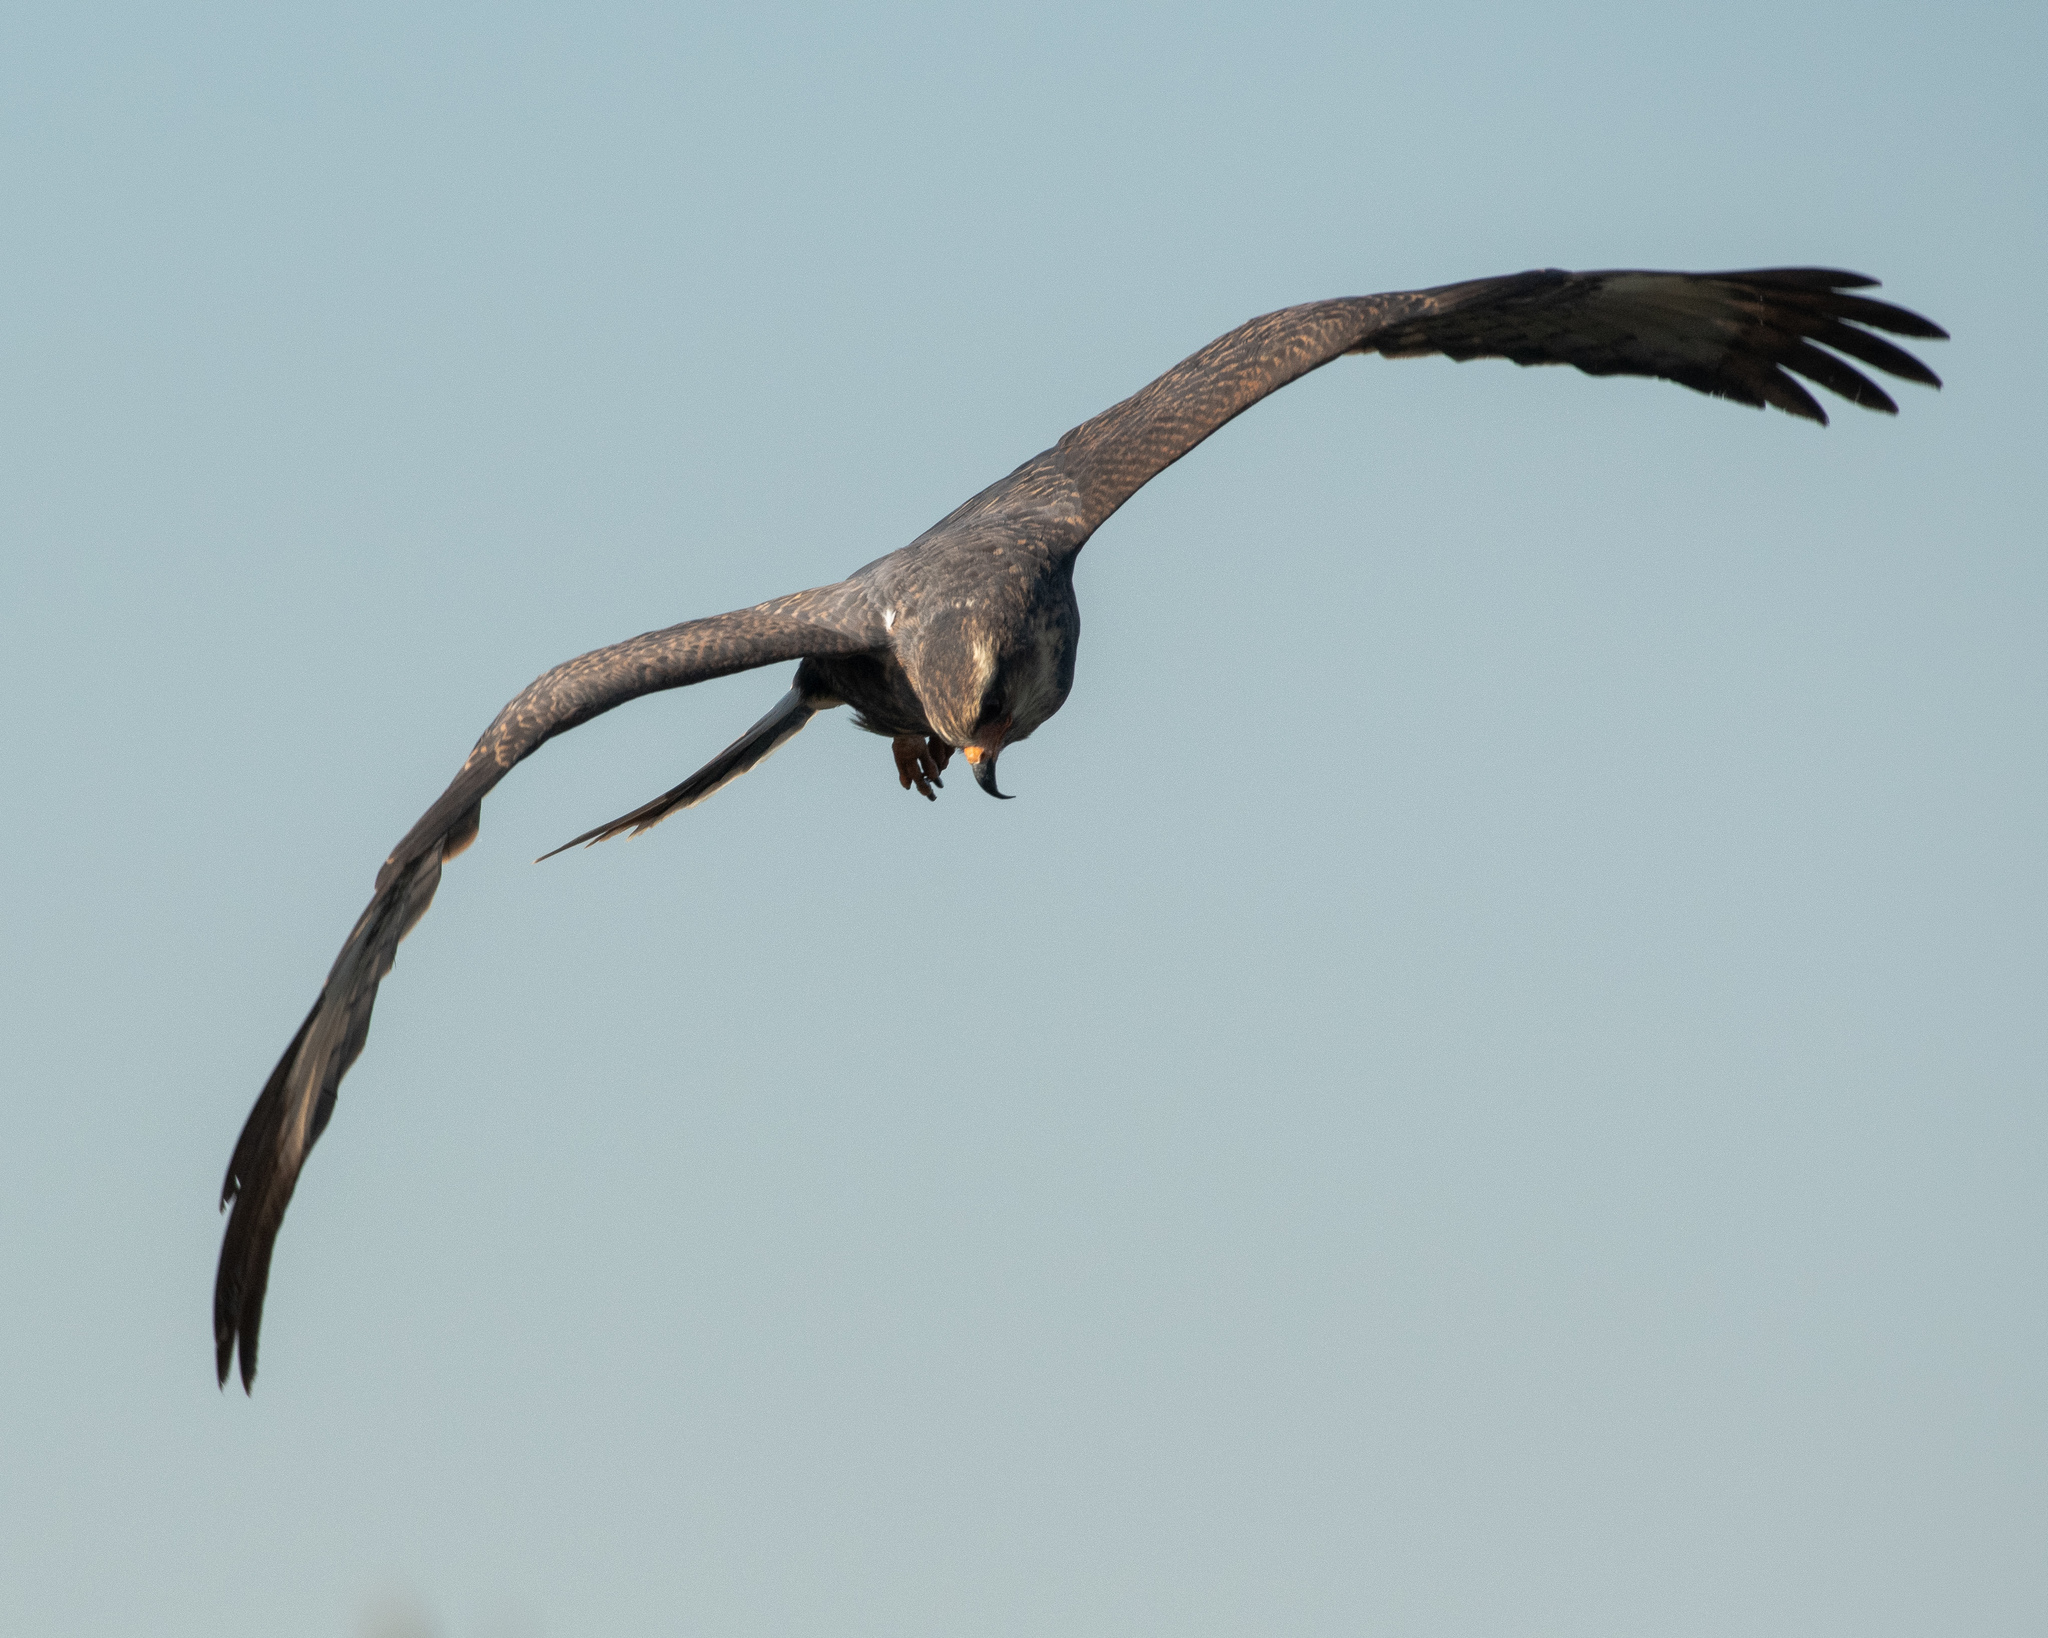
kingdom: Animalia
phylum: Chordata
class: Aves
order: Accipitriformes
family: Accipitridae
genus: Rostrhamus
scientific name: Rostrhamus sociabilis
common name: Snail kite
